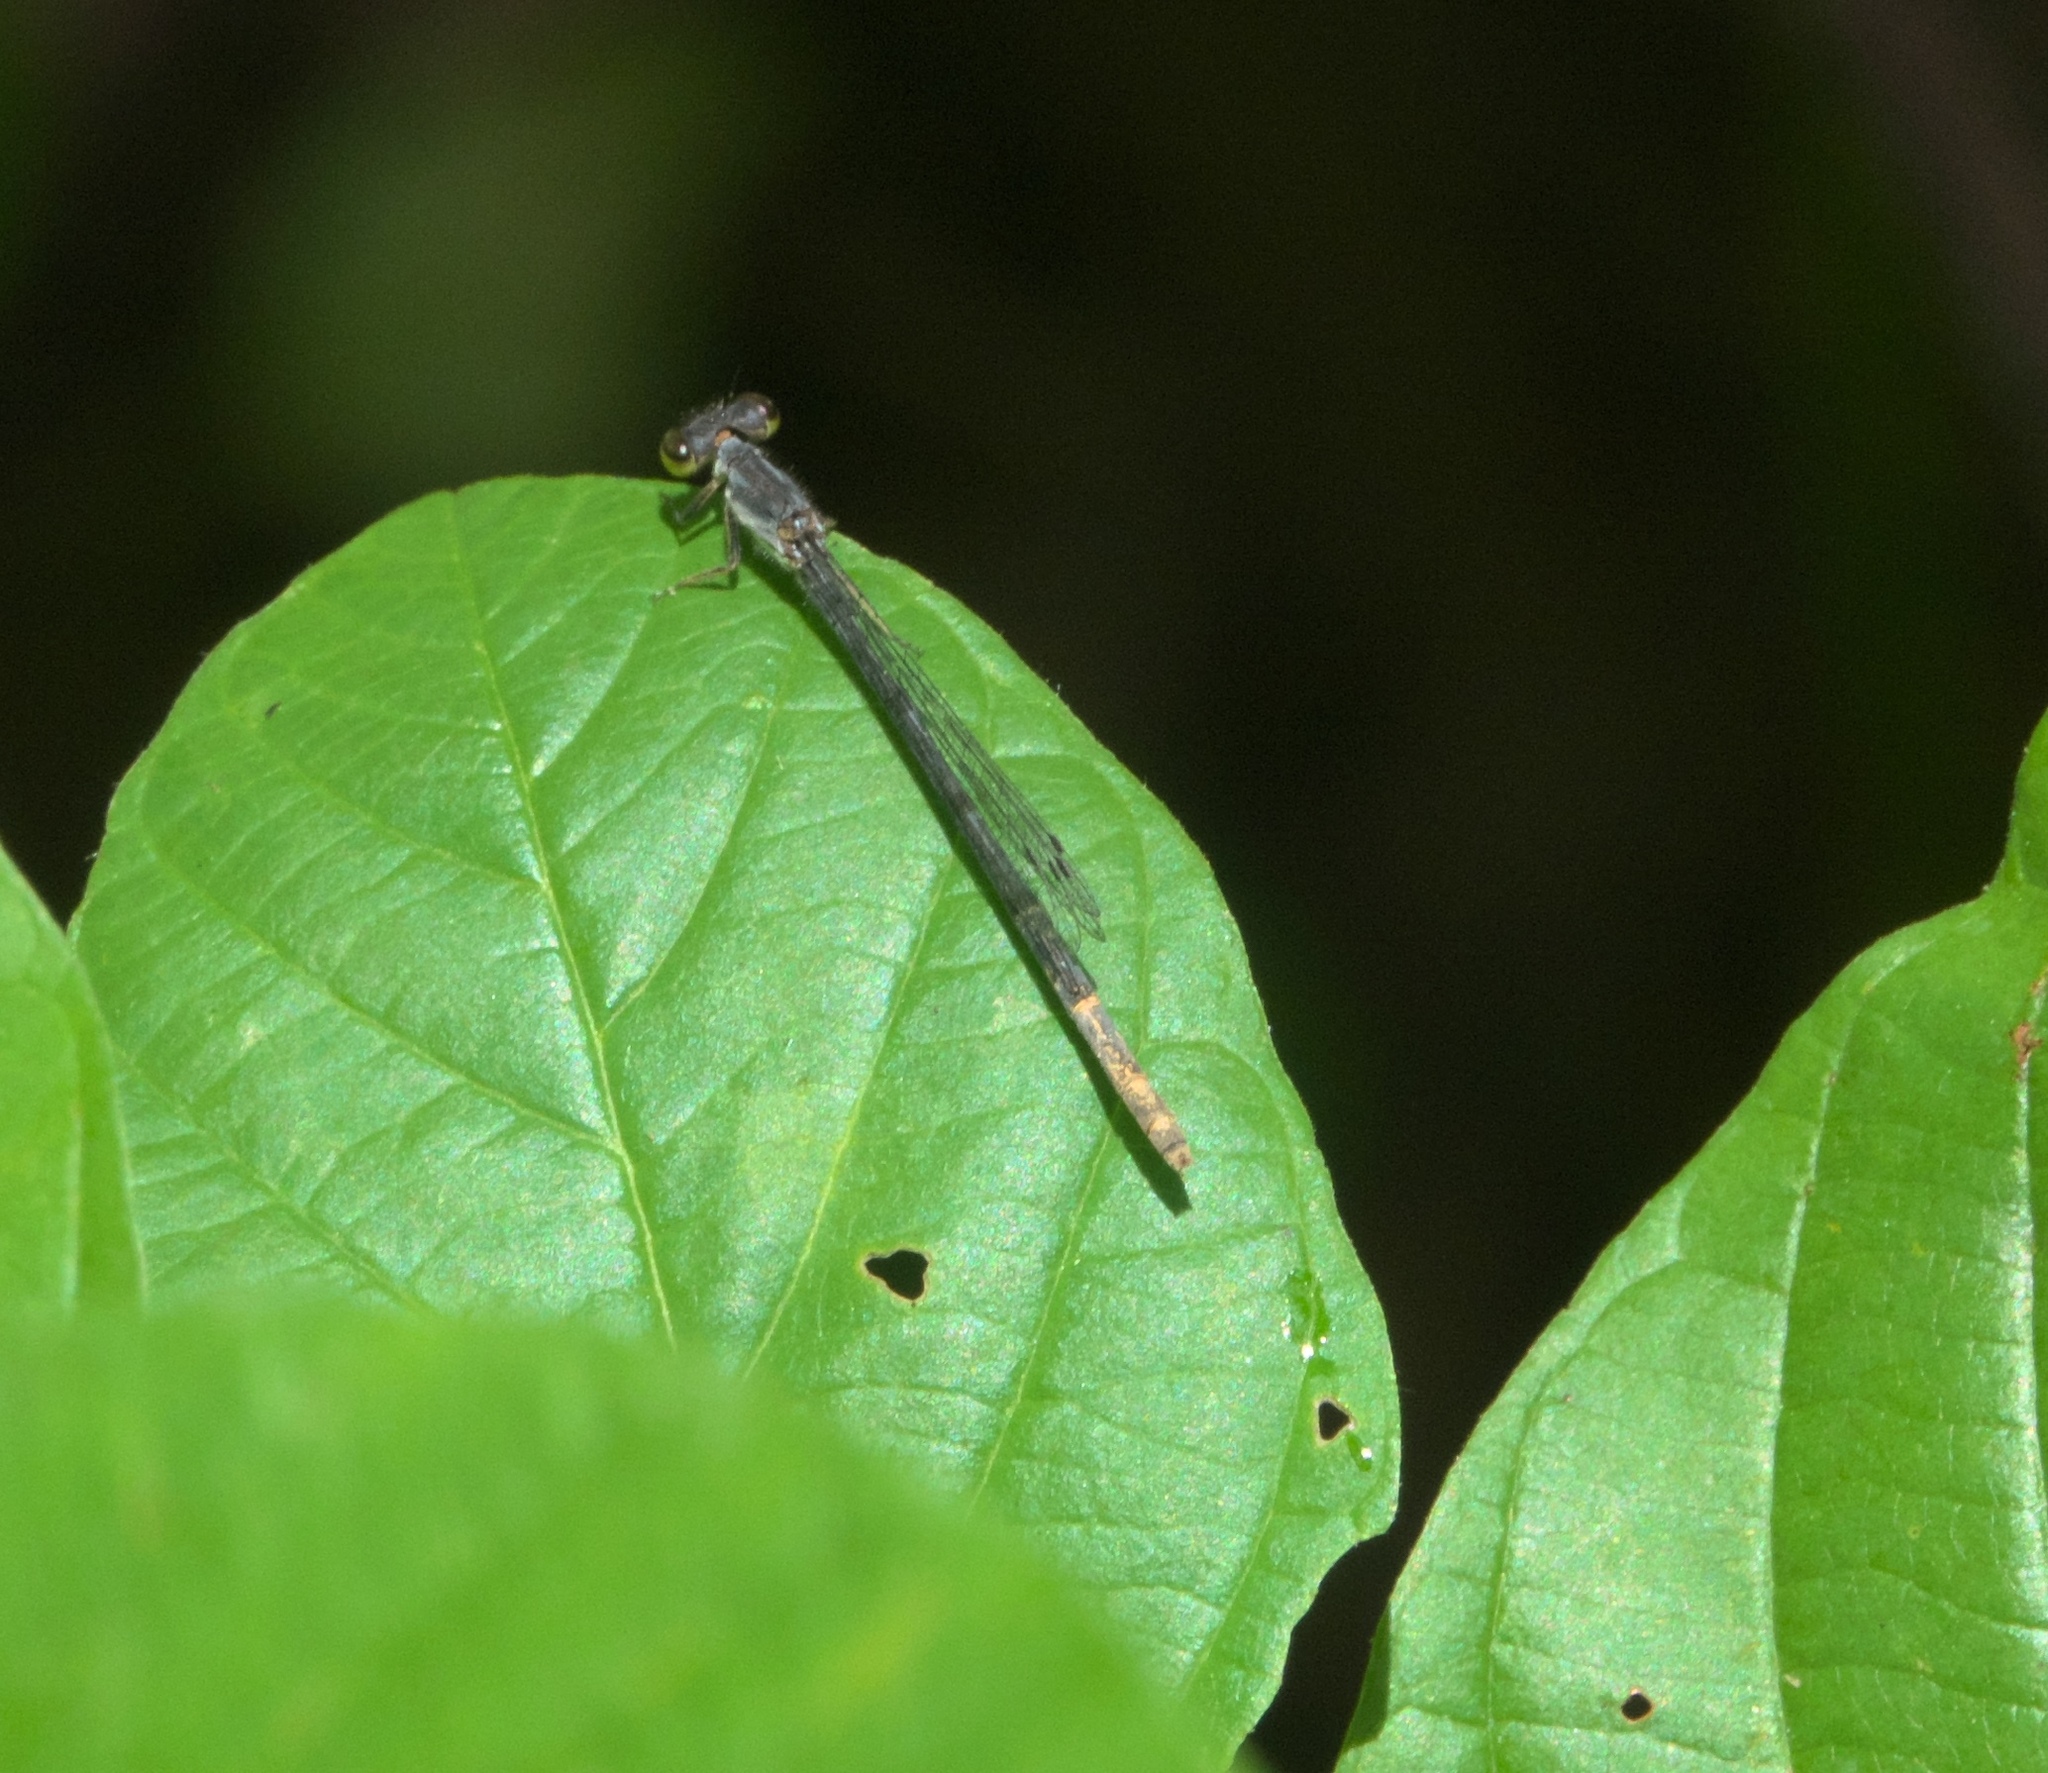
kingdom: Animalia
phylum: Arthropoda
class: Insecta
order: Odonata
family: Coenagrionidae
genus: Ischnura
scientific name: Ischnura posita
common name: Fragile forktail
